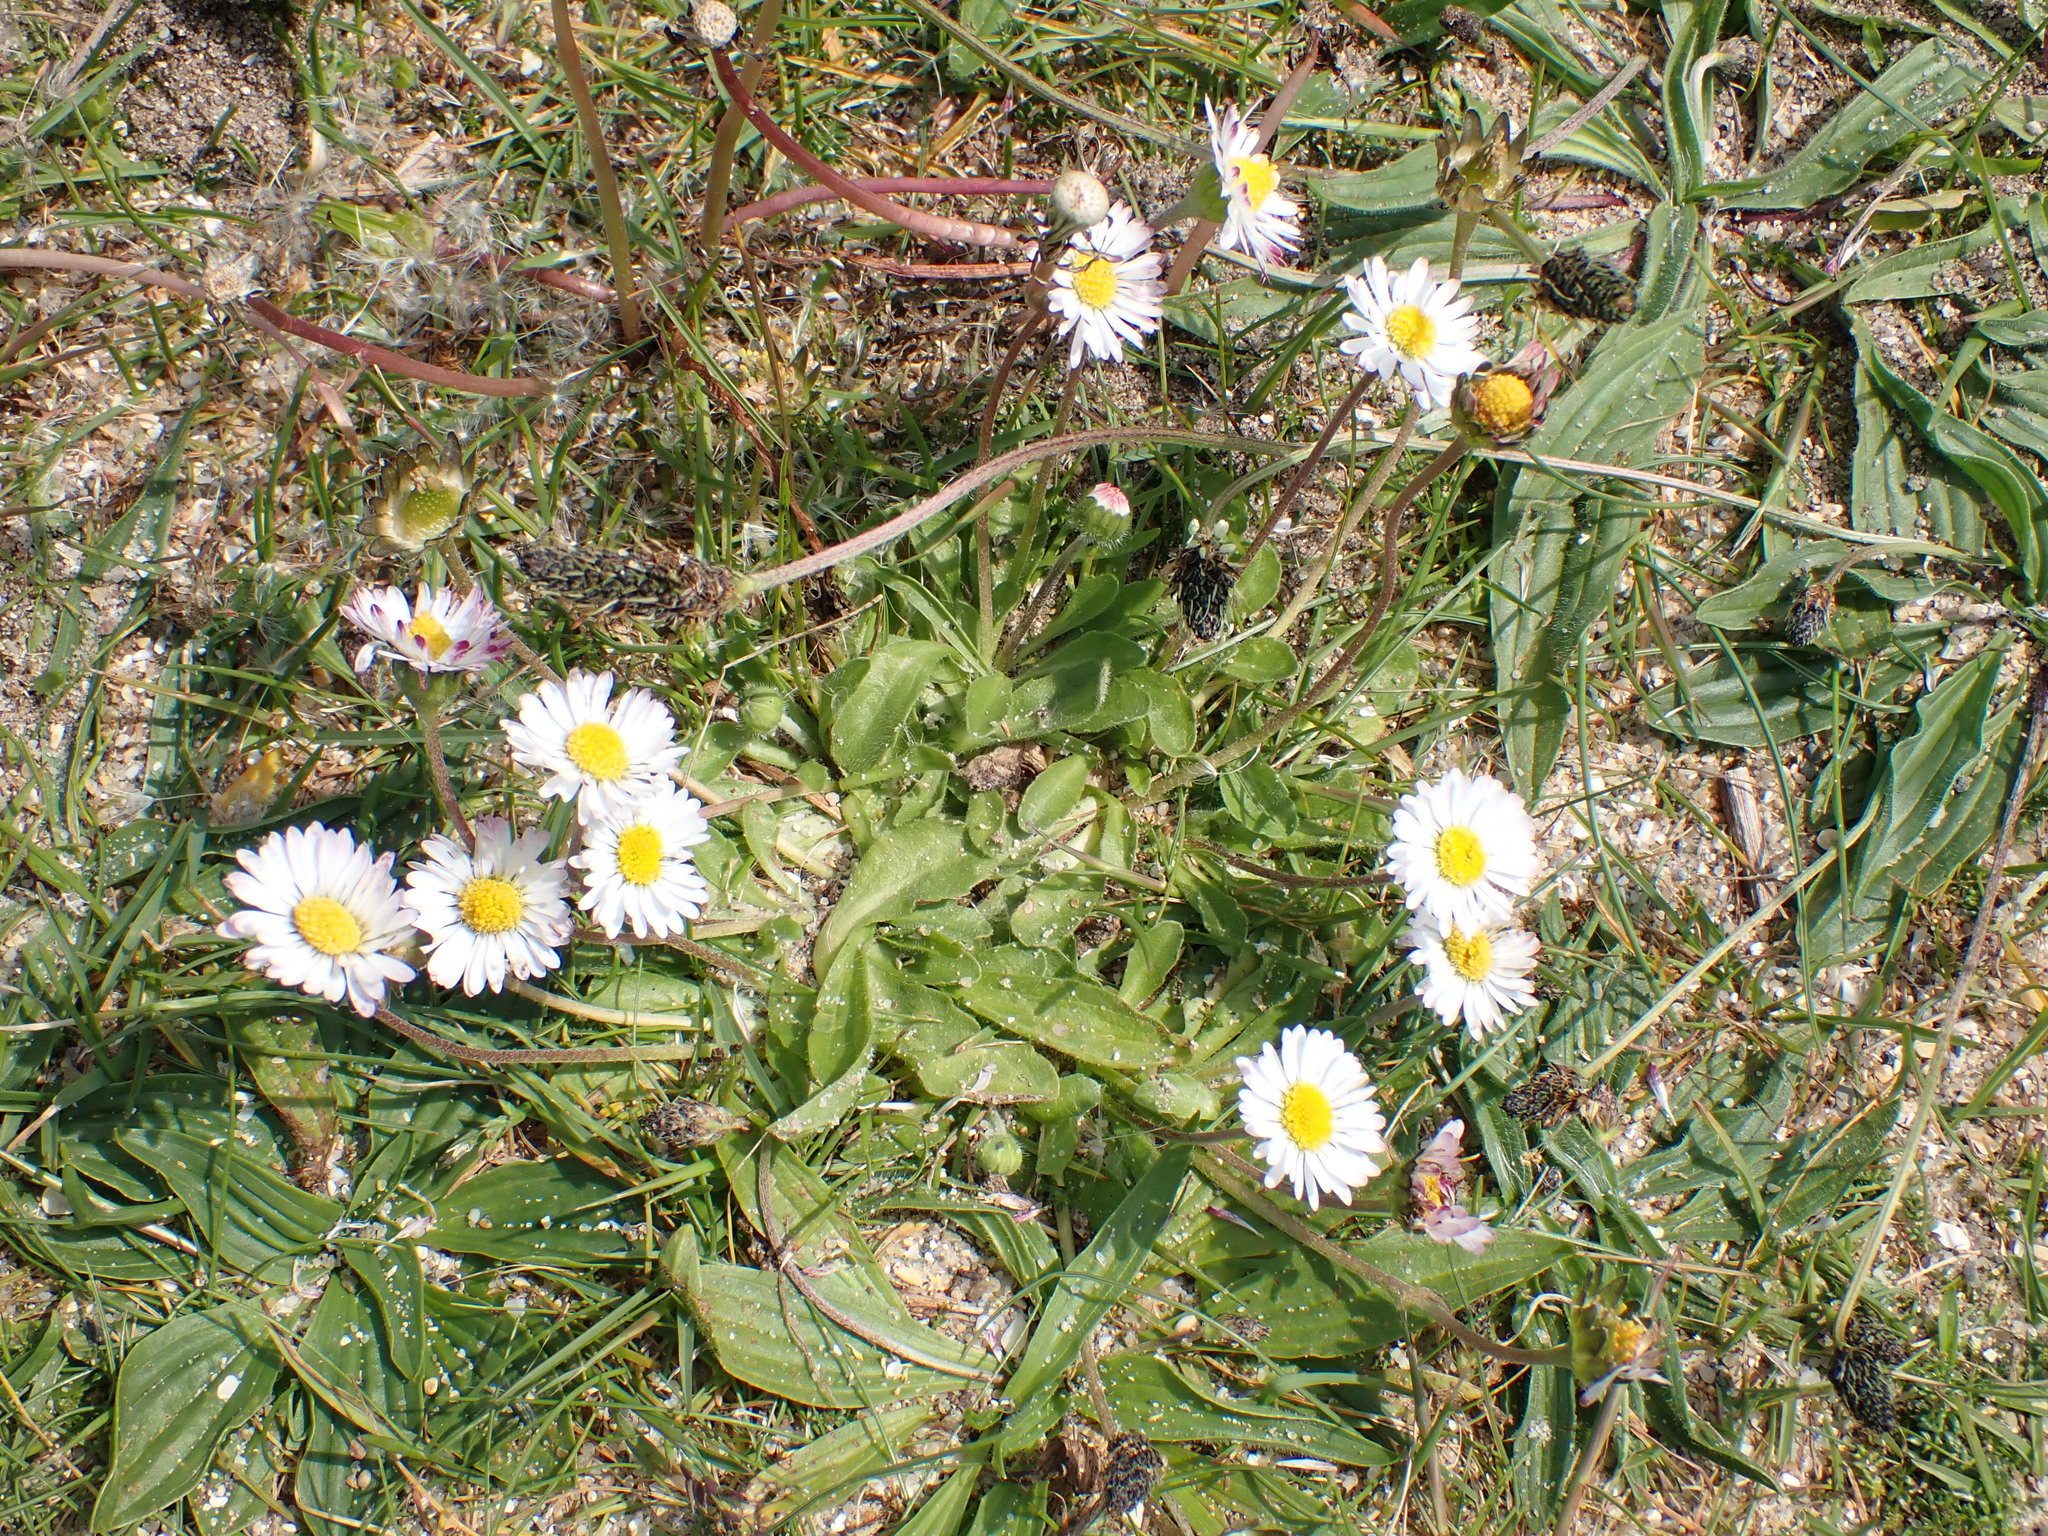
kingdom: Plantae
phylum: Tracheophyta
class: Magnoliopsida
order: Asterales
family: Asteraceae
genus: Bellis
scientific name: Bellis perennis
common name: Lawndaisy
